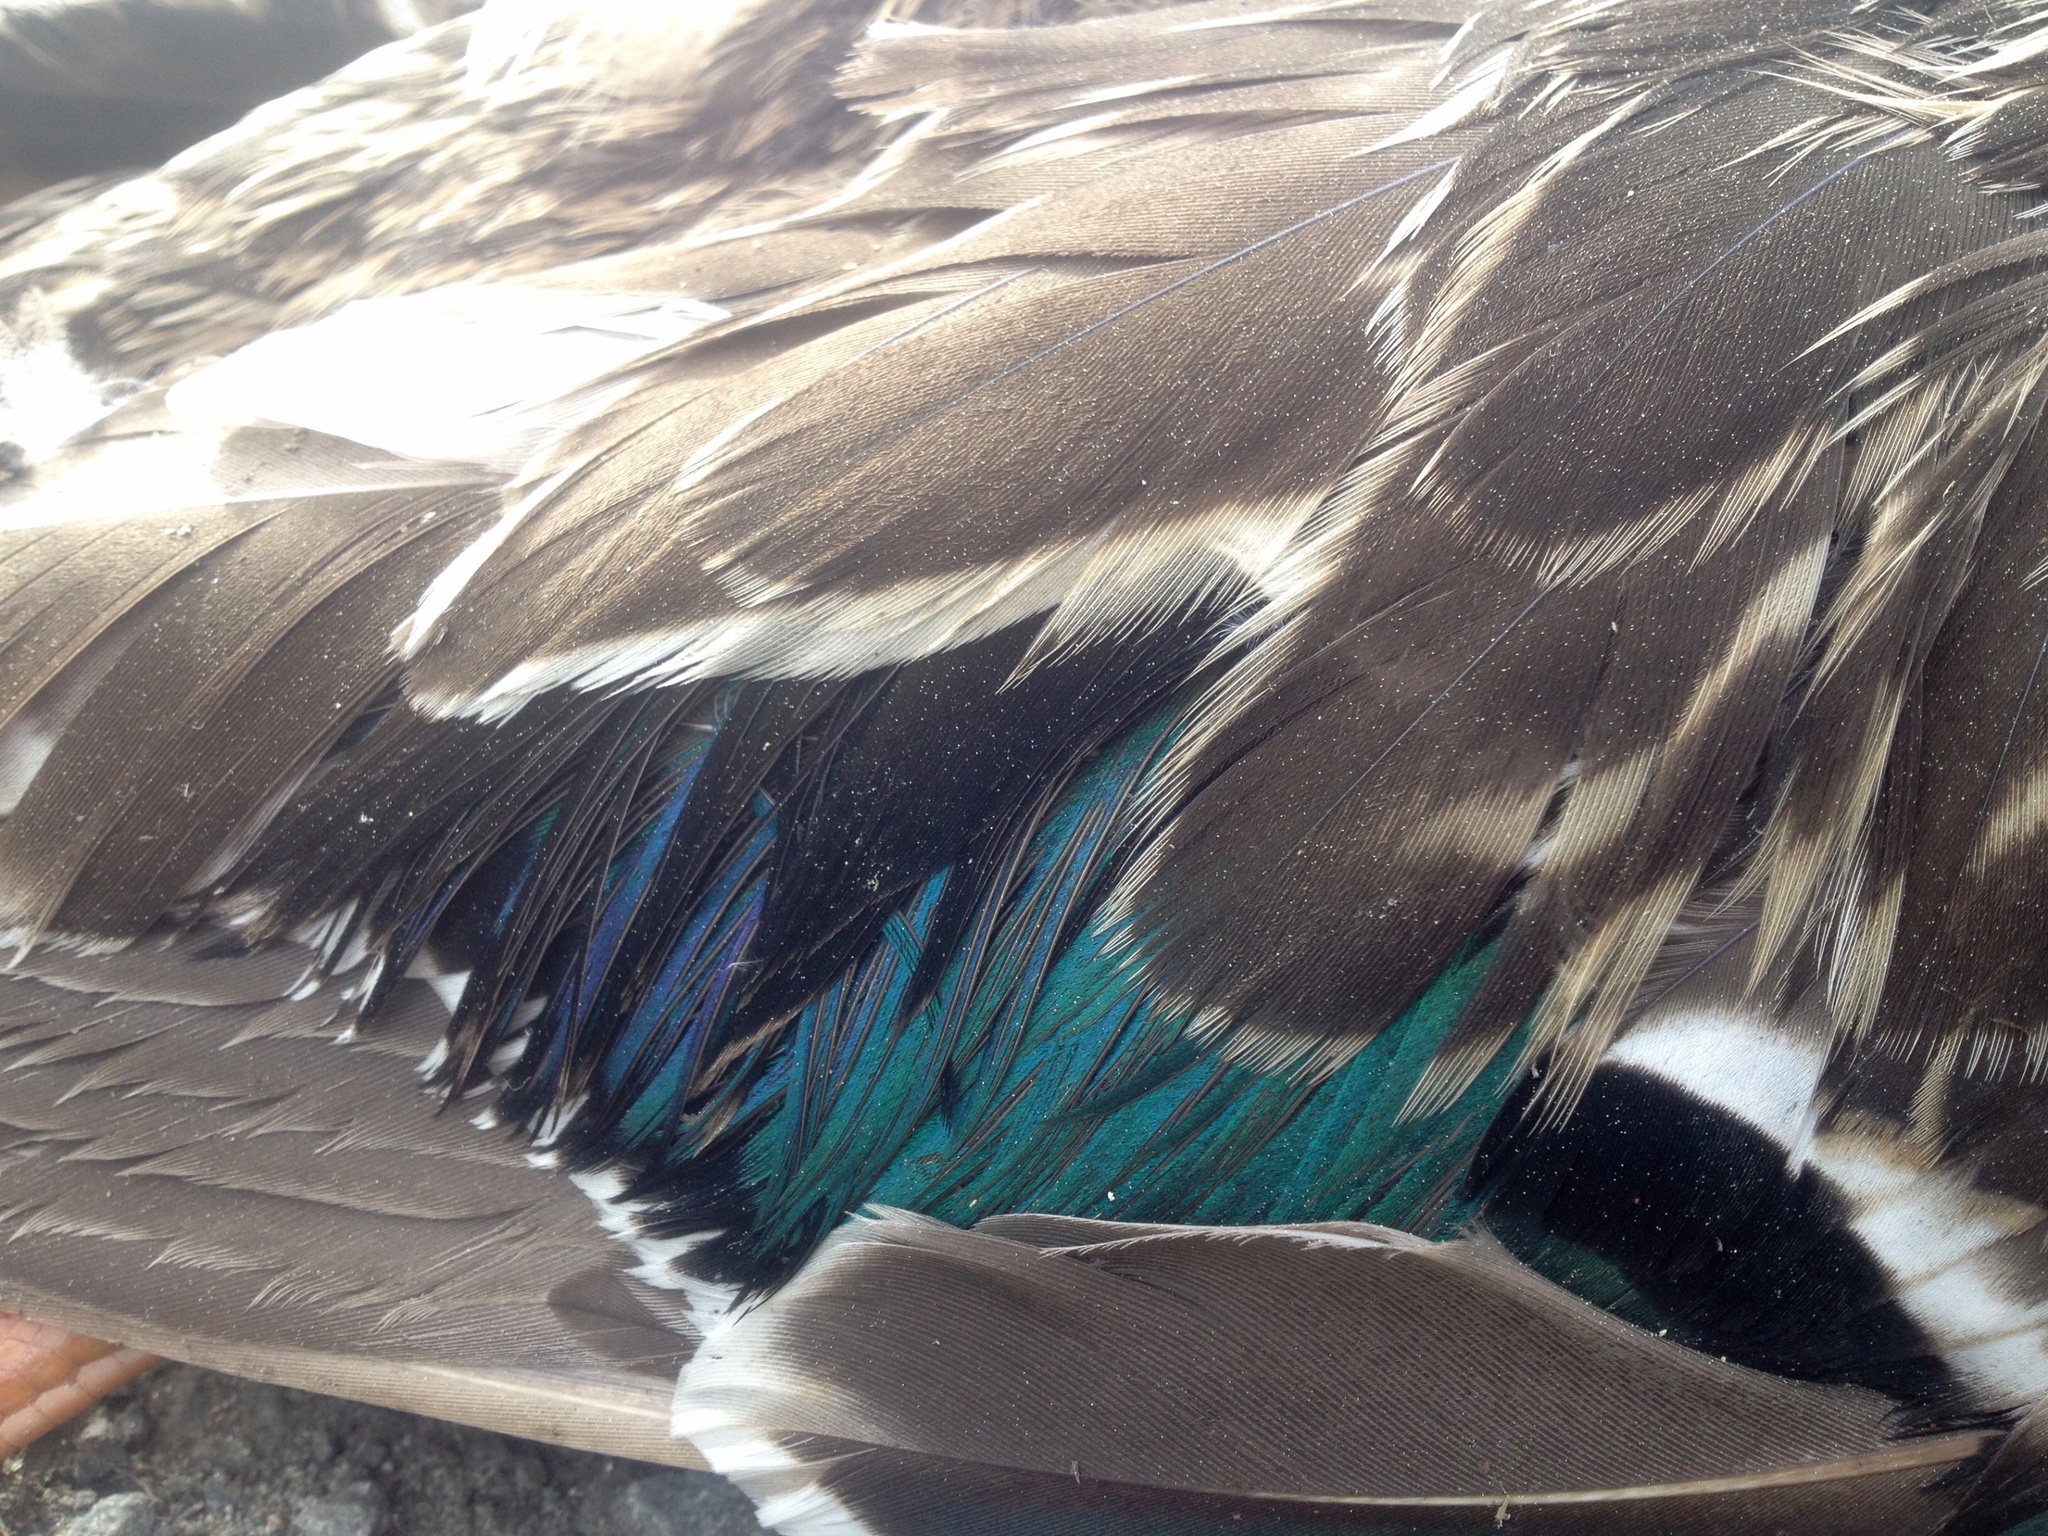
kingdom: Animalia
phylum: Chordata
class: Aves
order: Anseriformes
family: Anatidae
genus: Anas
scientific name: Anas
